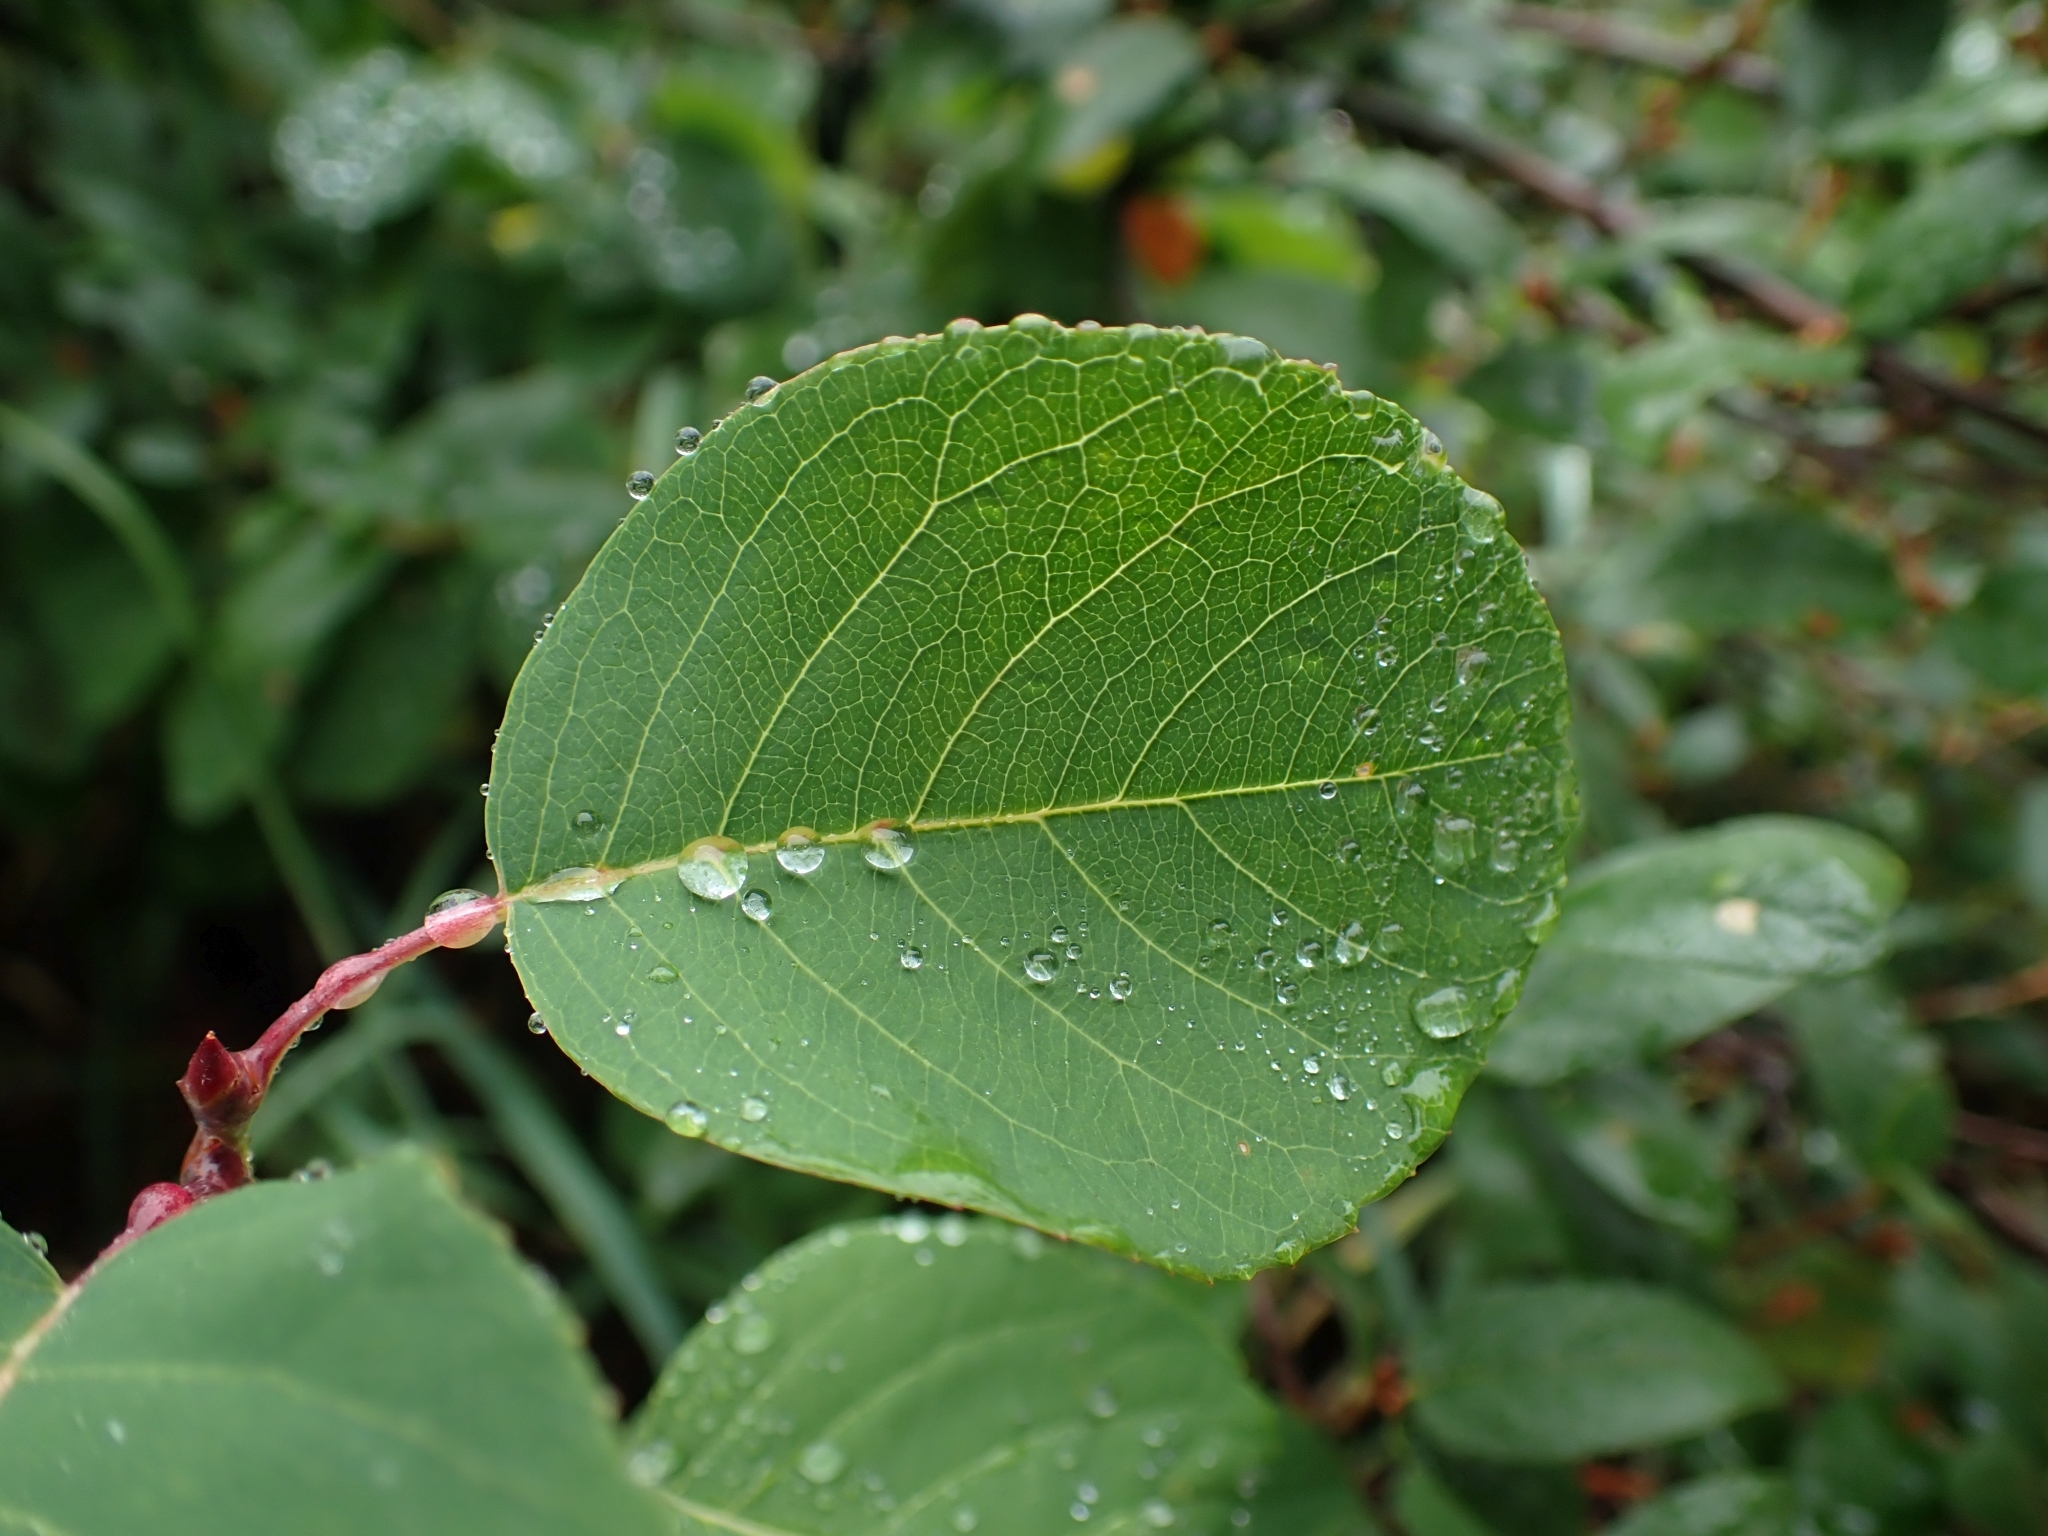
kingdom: Plantae
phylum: Tracheophyta
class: Magnoliopsida
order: Rosales
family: Rosaceae
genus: Amelanchier
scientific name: Amelanchier alnifolia
